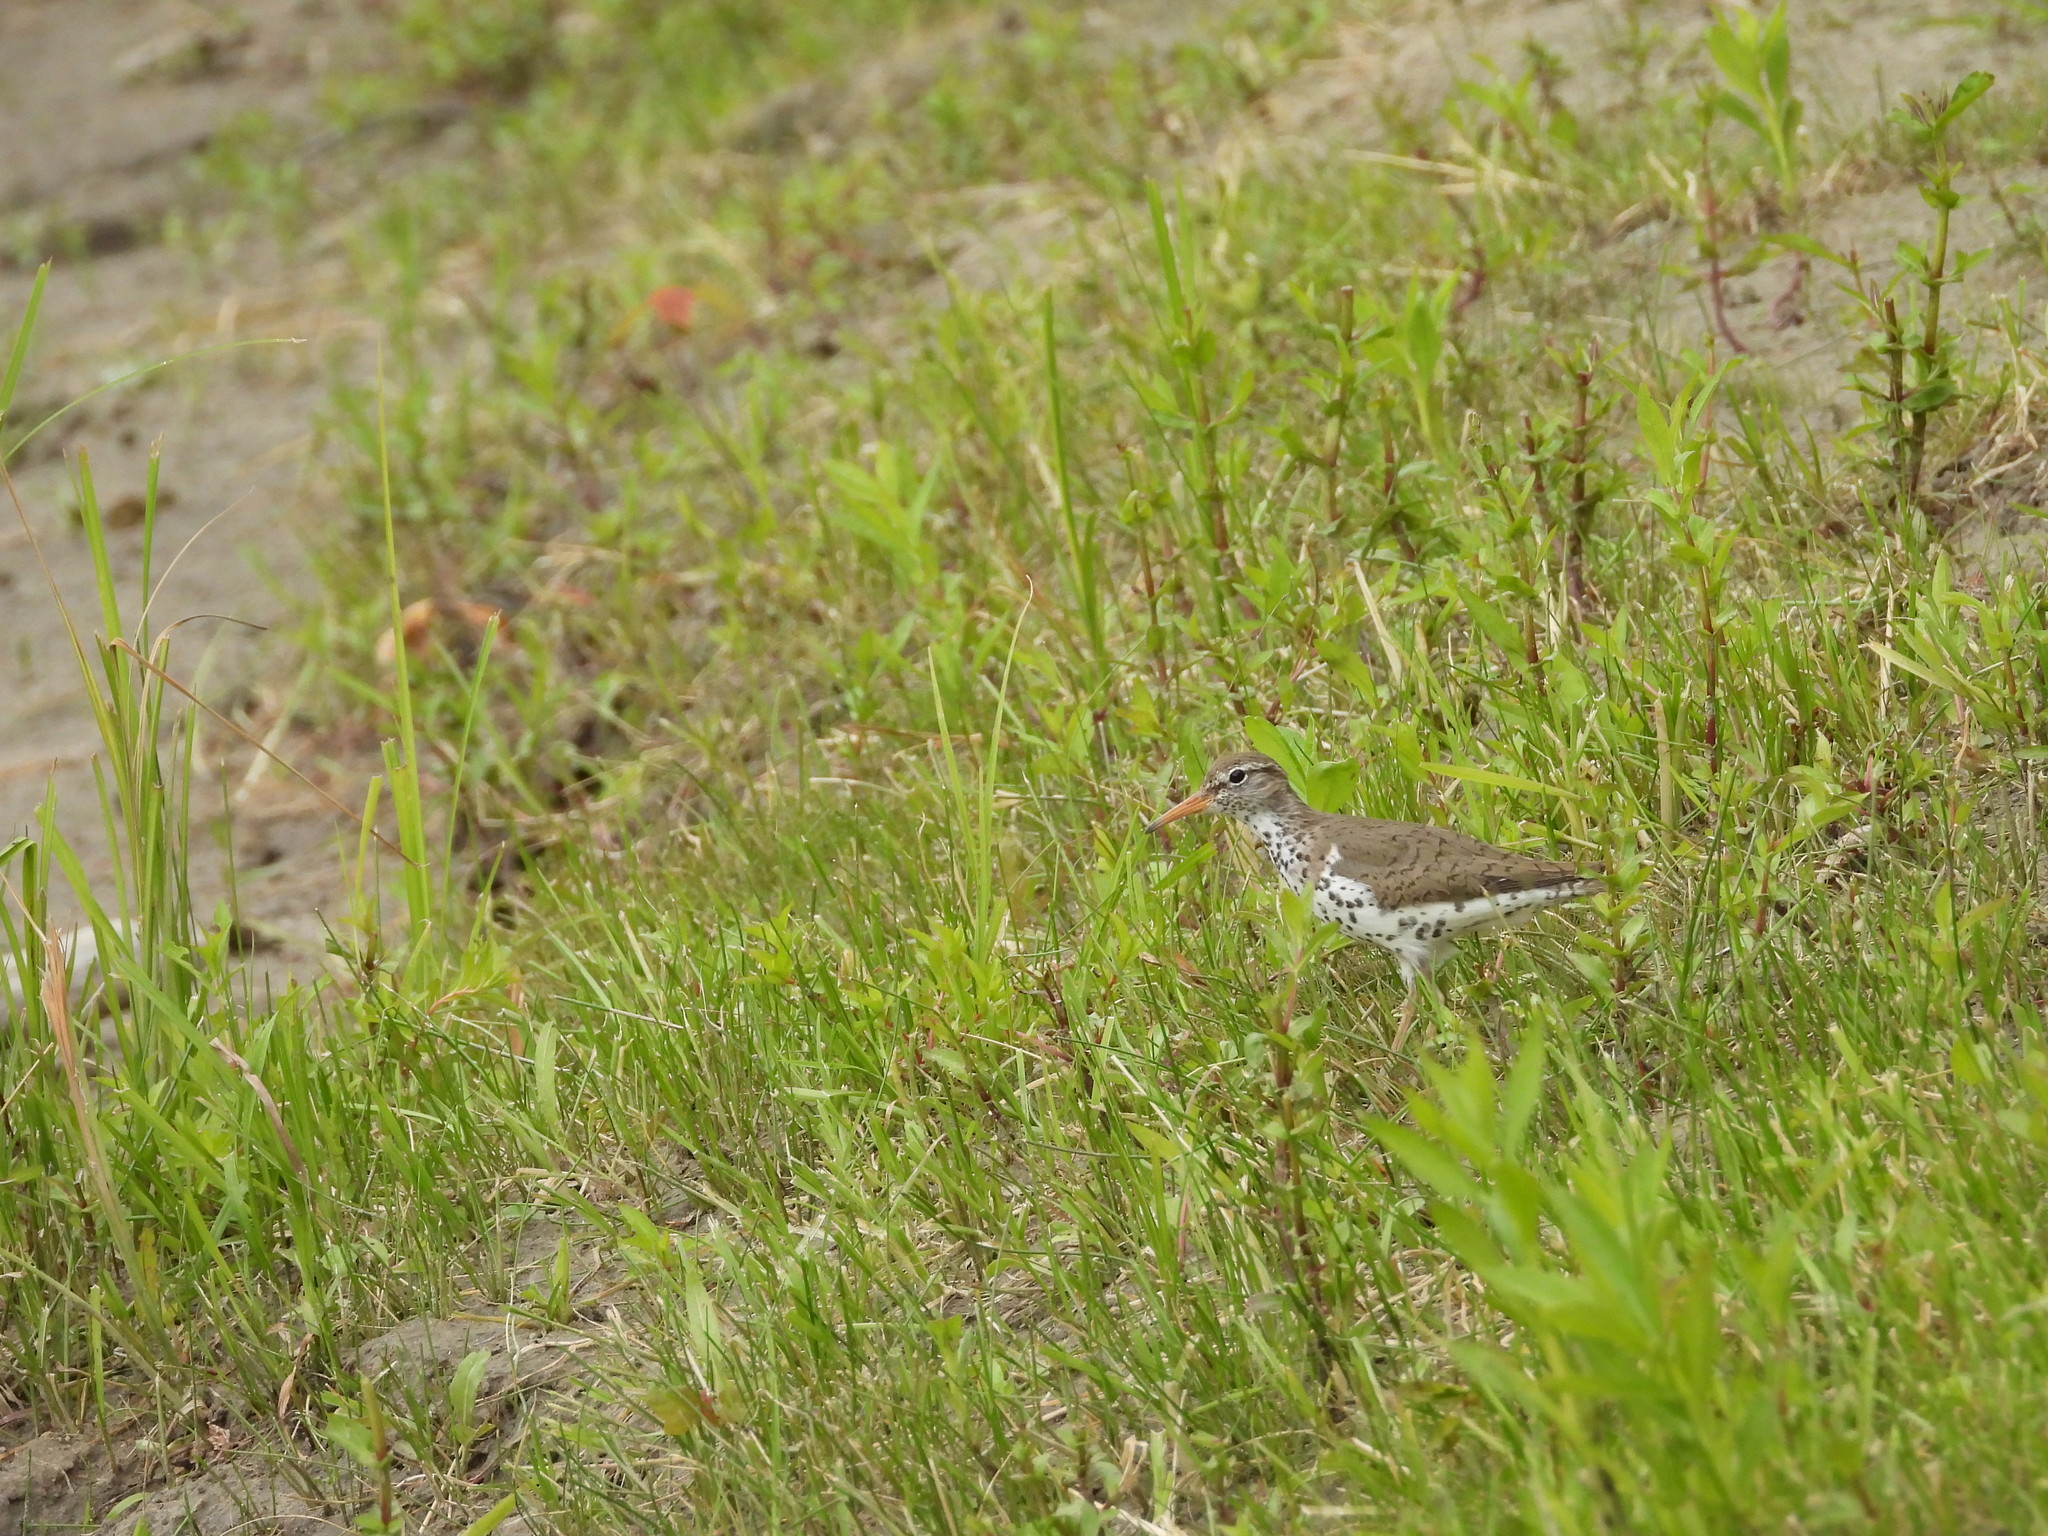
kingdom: Animalia
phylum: Chordata
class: Aves
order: Charadriiformes
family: Scolopacidae
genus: Actitis
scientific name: Actitis macularius
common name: Spotted sandpiper
